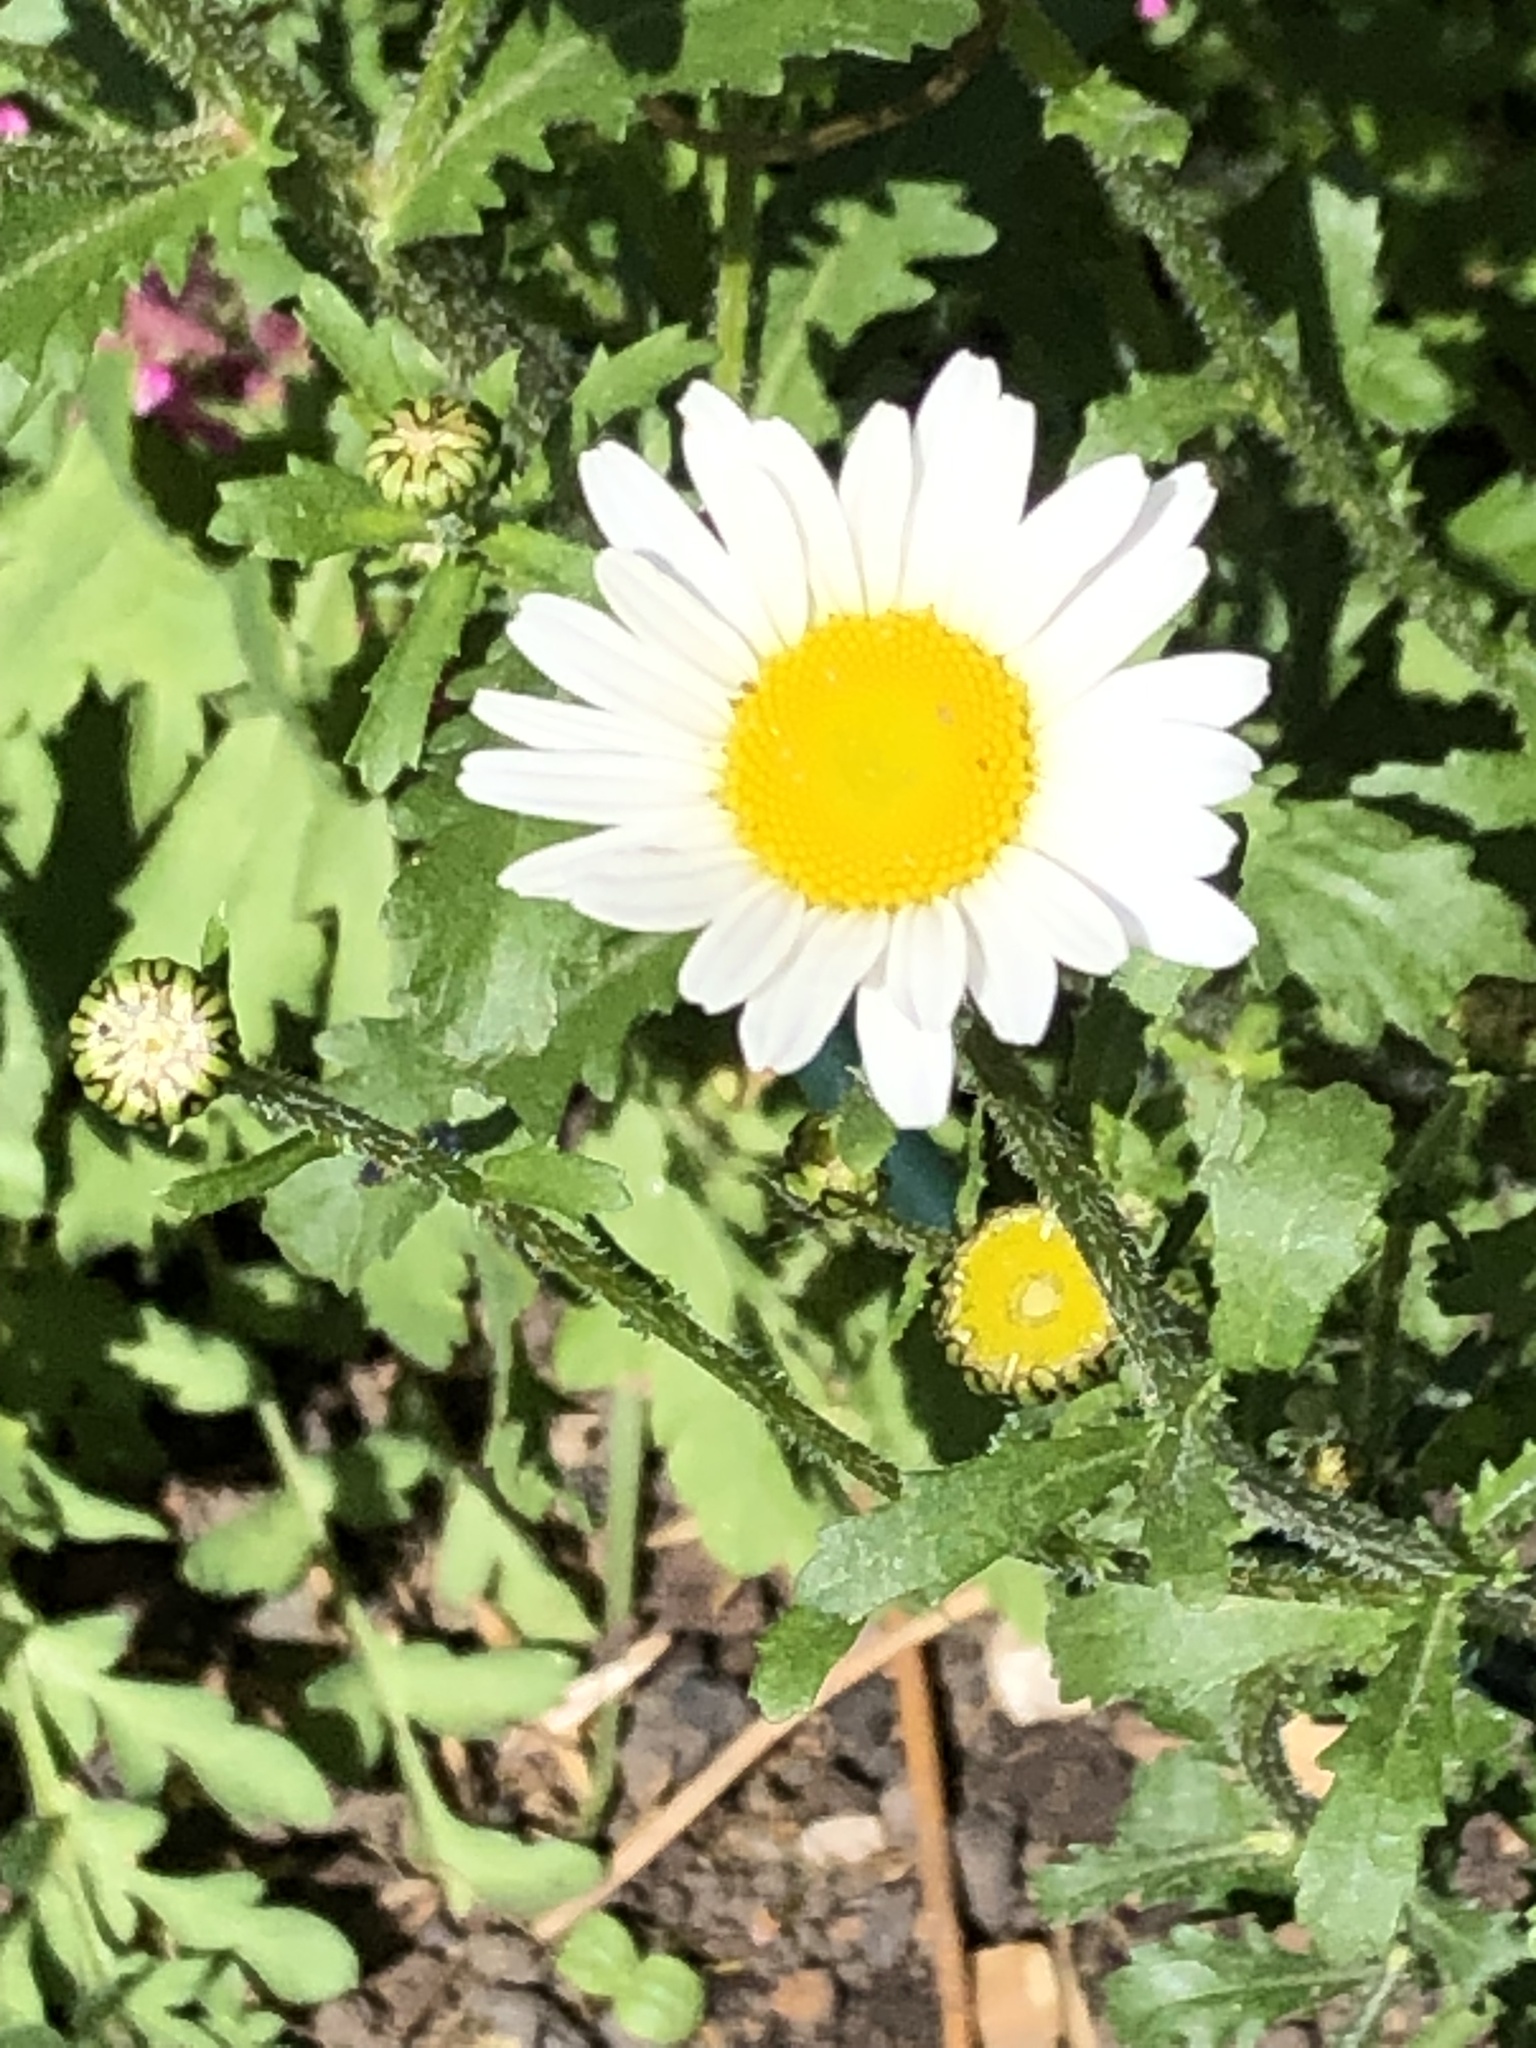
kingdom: Plantae
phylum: Tracheophyta
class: Magnoliopsida
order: Asterales
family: Asteraceae
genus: Leucanthemum
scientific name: Leucanthemum vulgare
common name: Oxeye daisy
